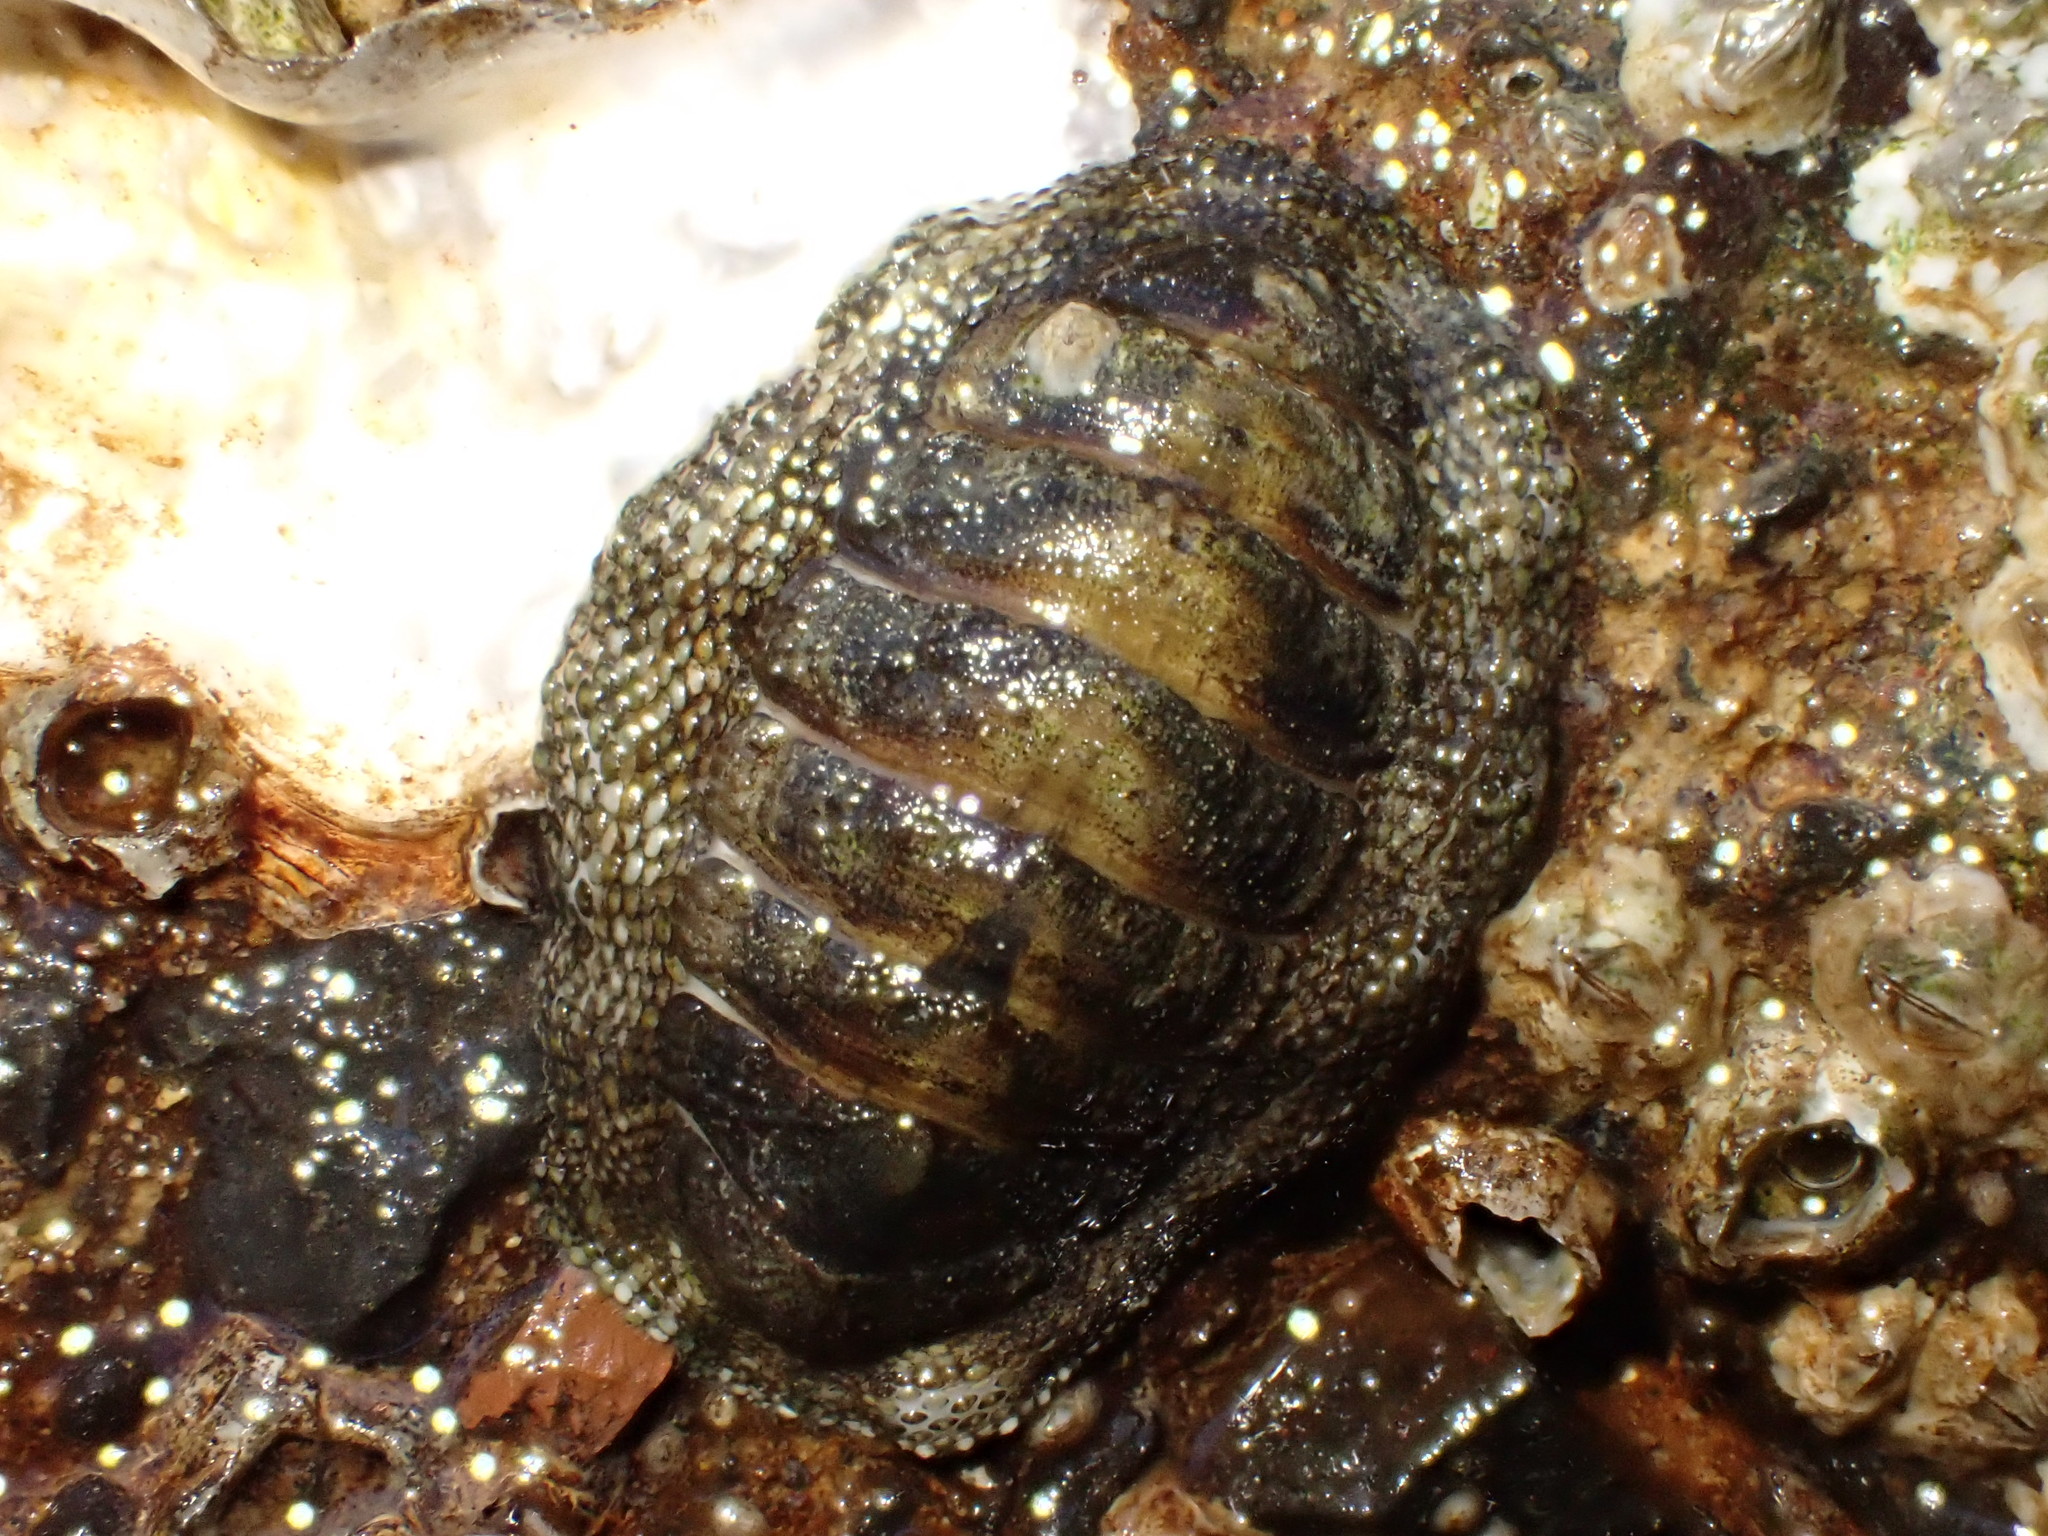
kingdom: Animalia
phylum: Mollusca
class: Polyplacophora
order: Chitonida
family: Chitonidae
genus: Sypharochiton
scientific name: Sypharochiton pelliserpentis
